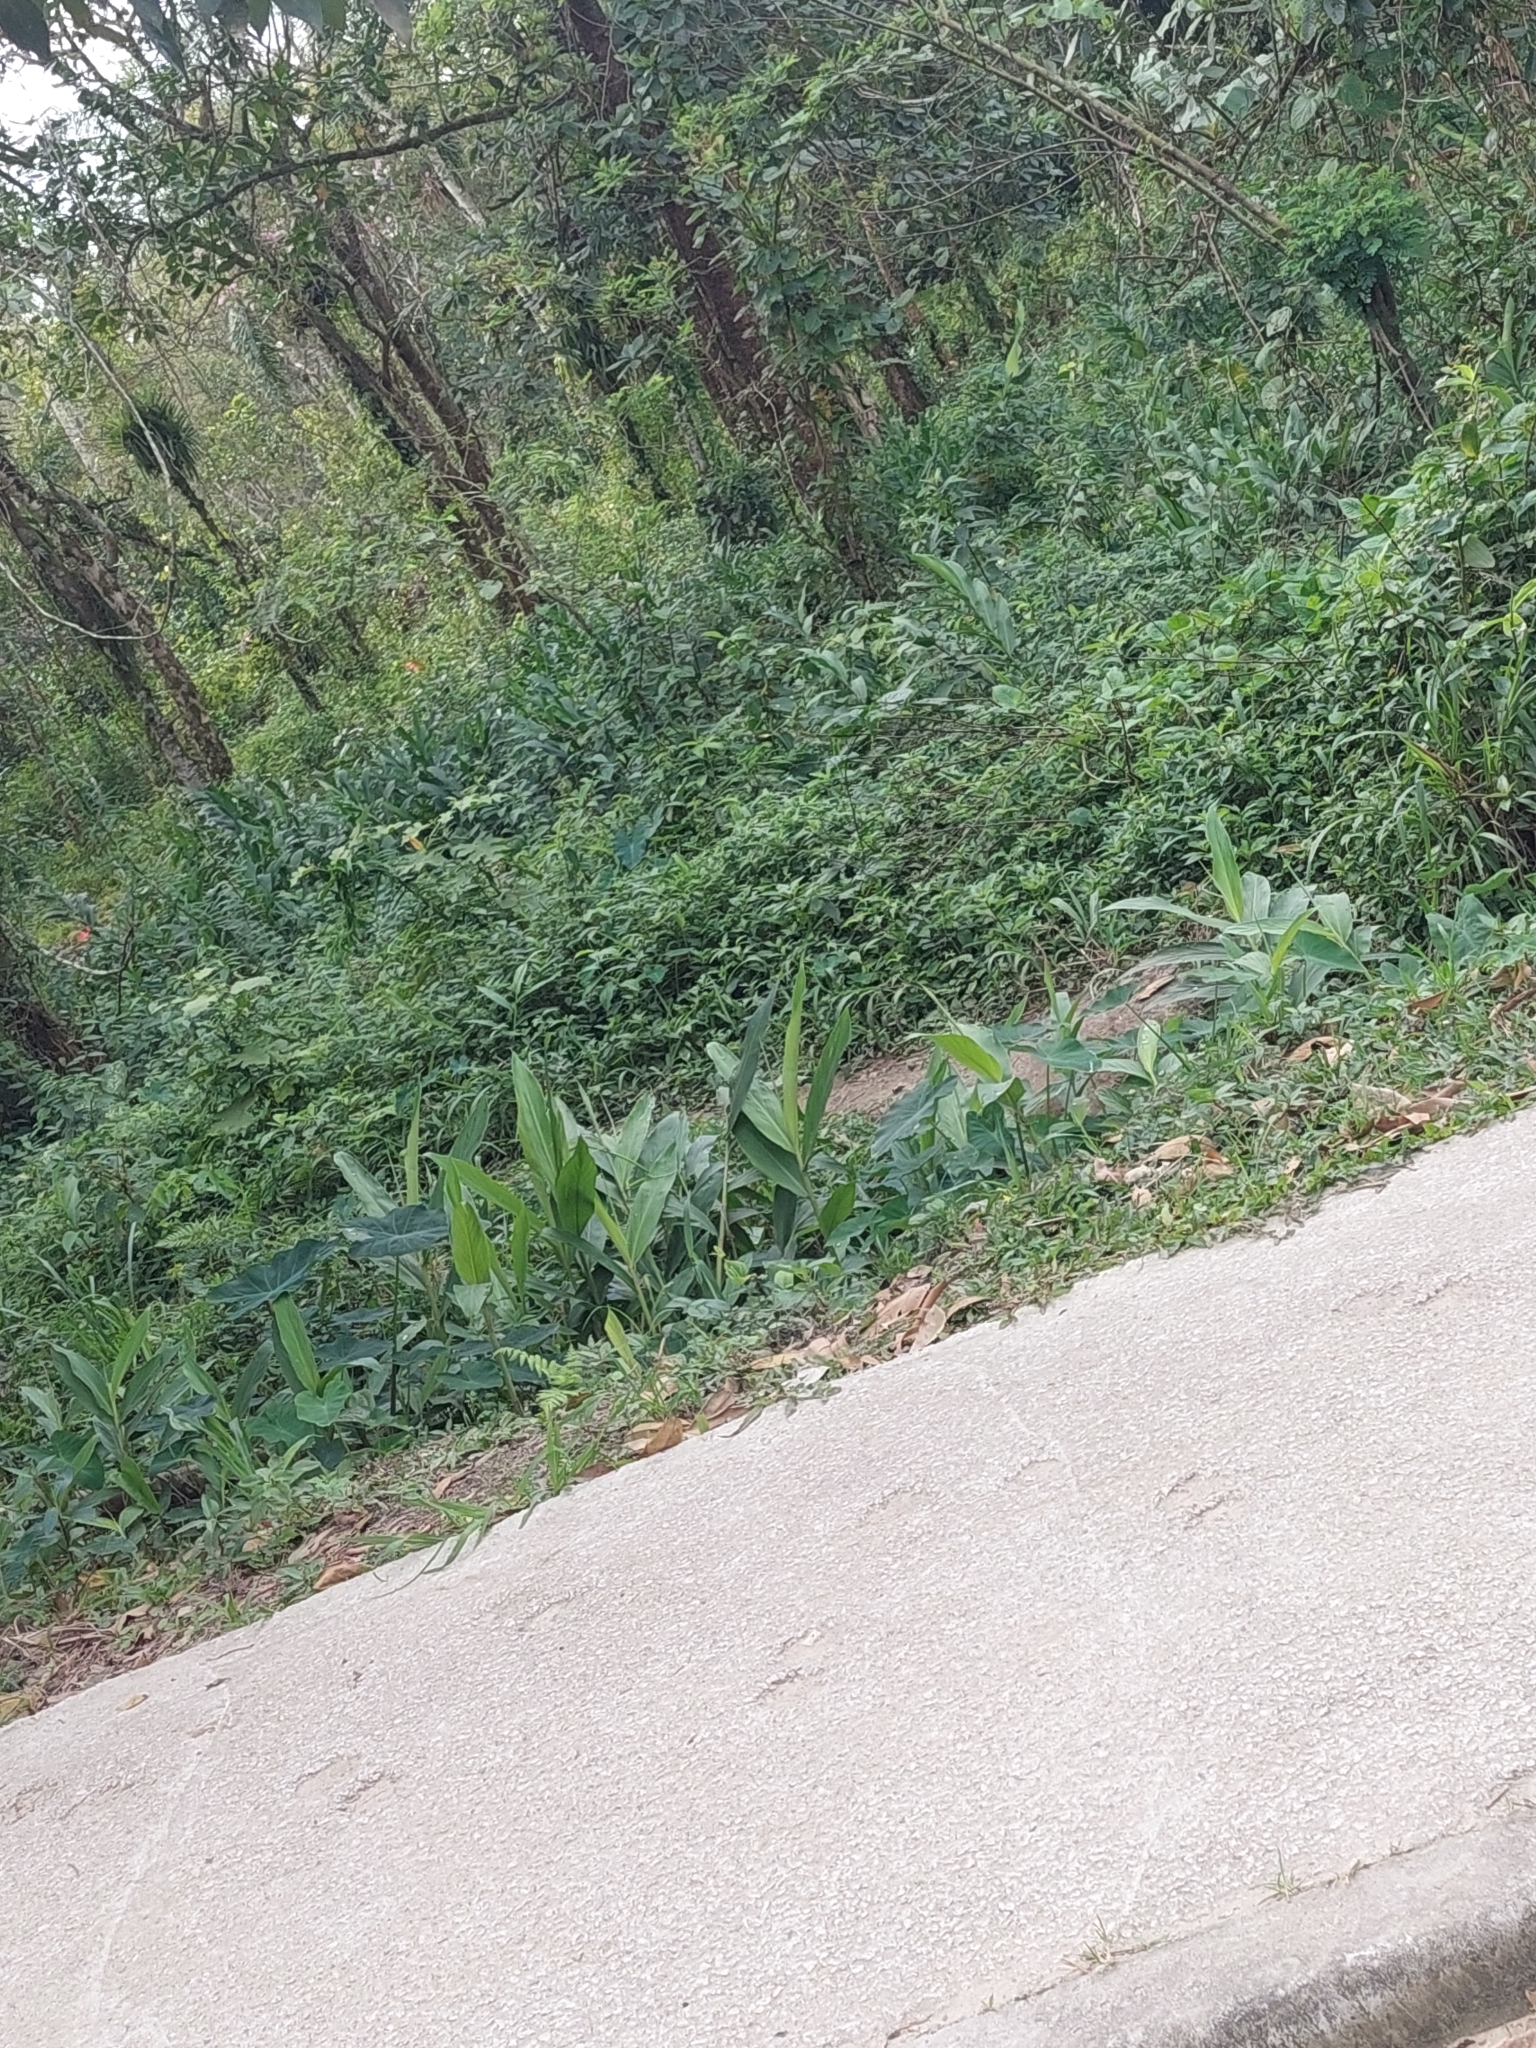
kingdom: Plantae
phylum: Tracheophyta
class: Liliopsida
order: Zingiberales
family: Zingiberaceae
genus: Hedychium
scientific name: Hedychium coronarium
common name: White garland-lily
